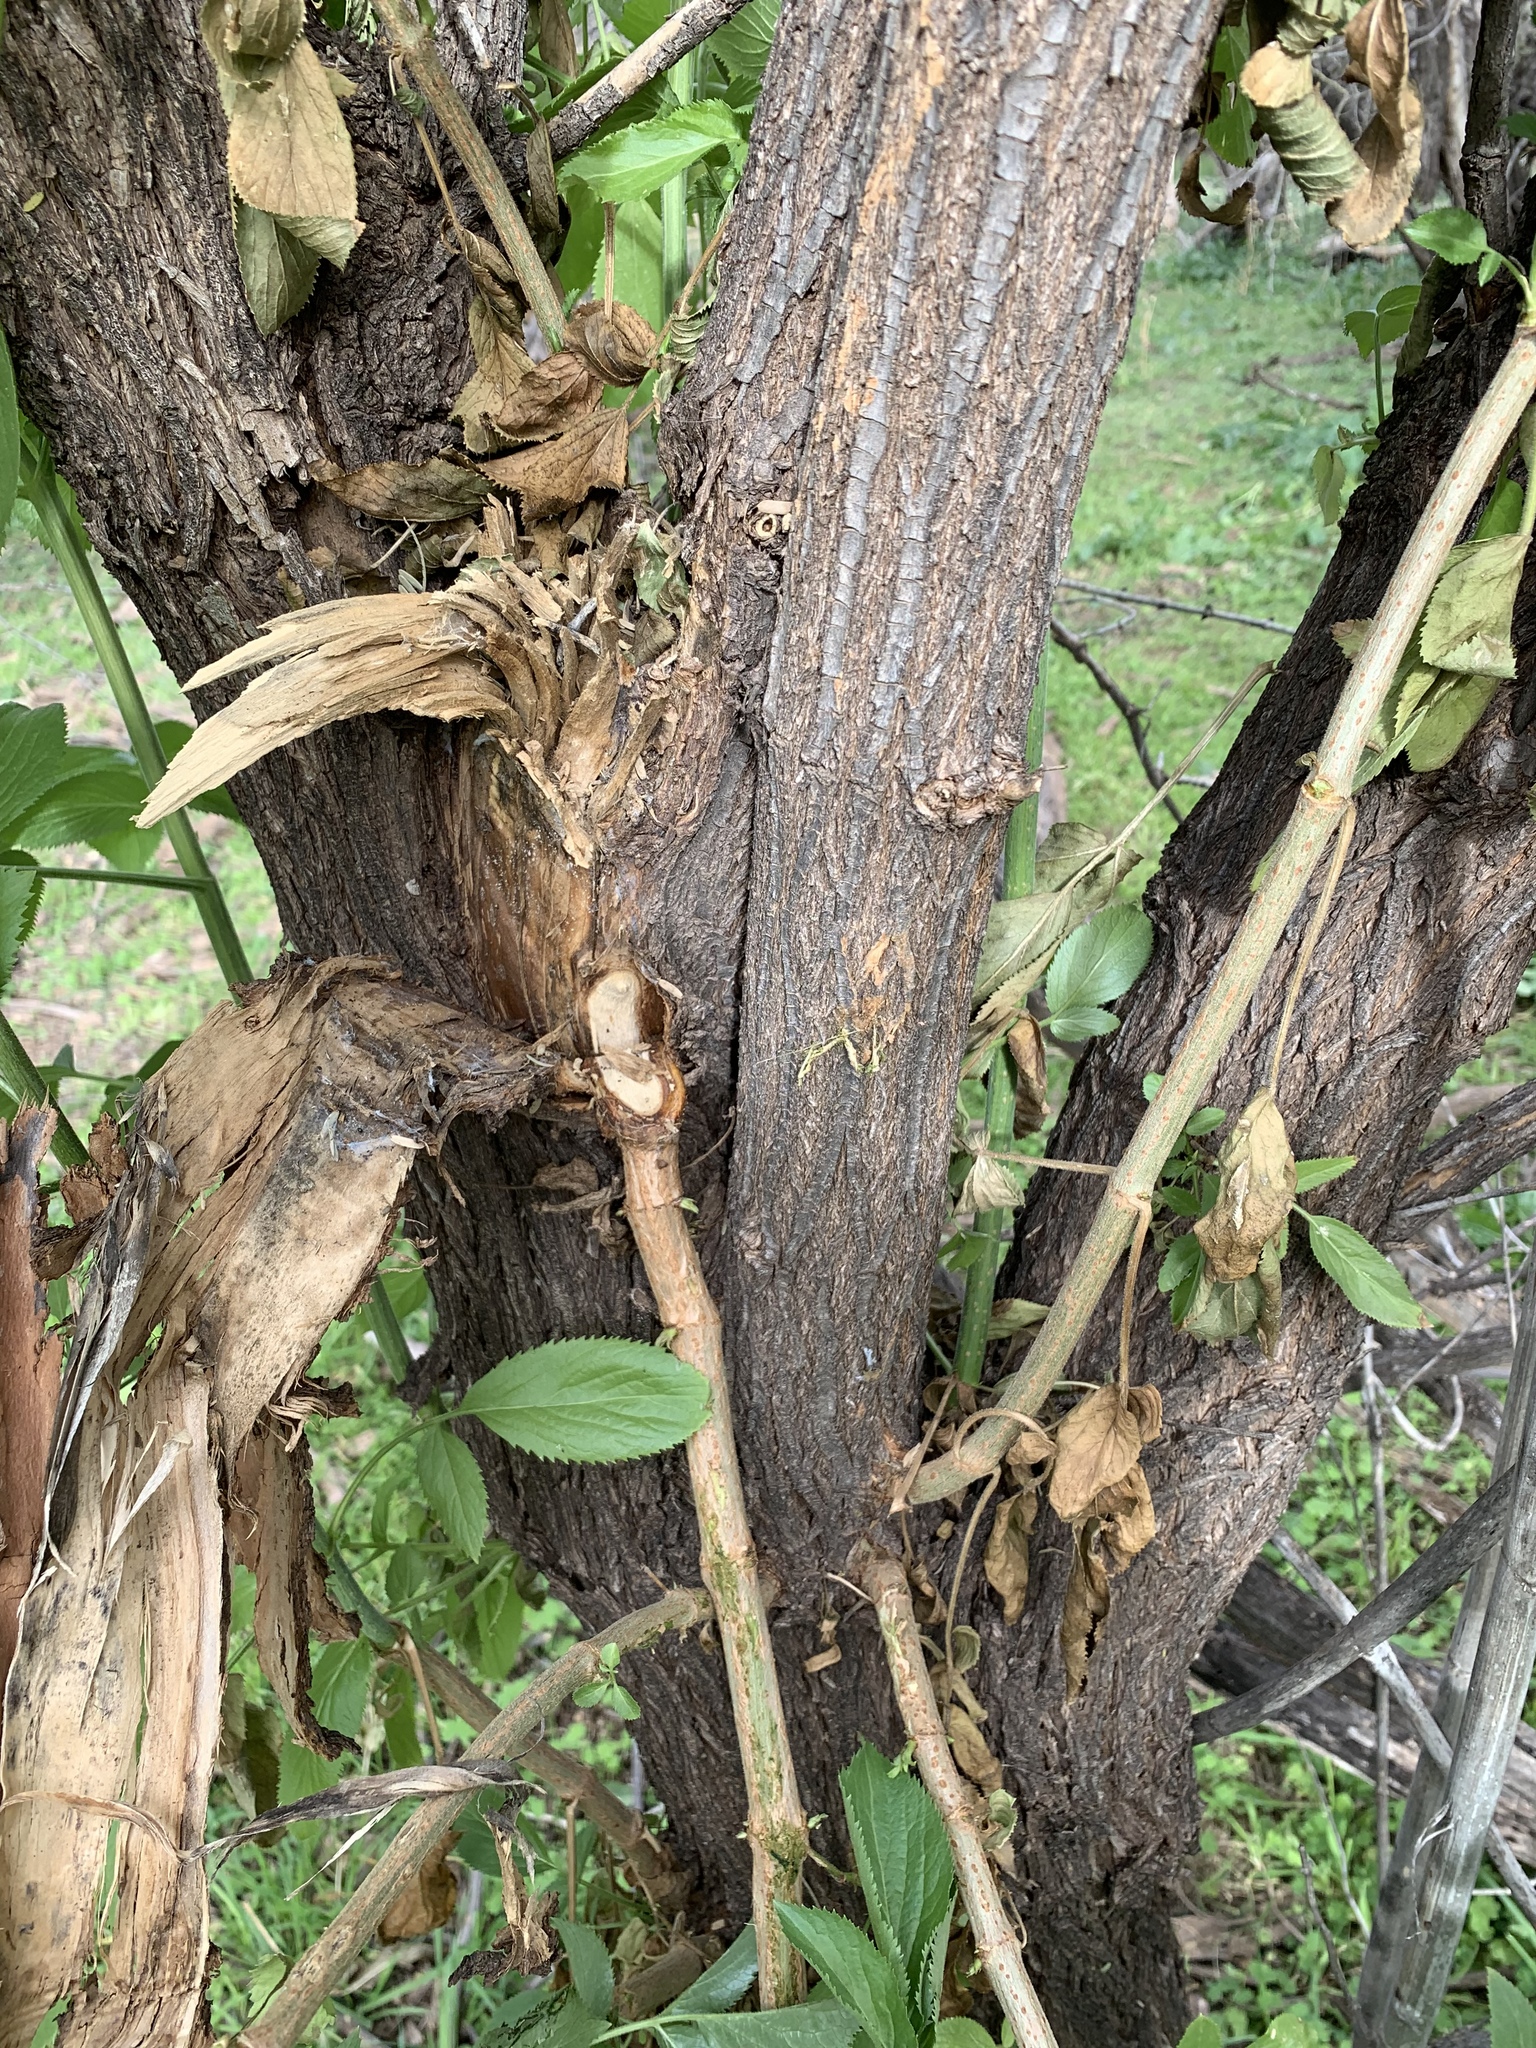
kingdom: Plantae
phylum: Tracheophyta
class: Magnoliopsida
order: Dipsacales
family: Viburnaceae
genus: Sambucus
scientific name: Sambucus cerulea
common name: Blue elder
